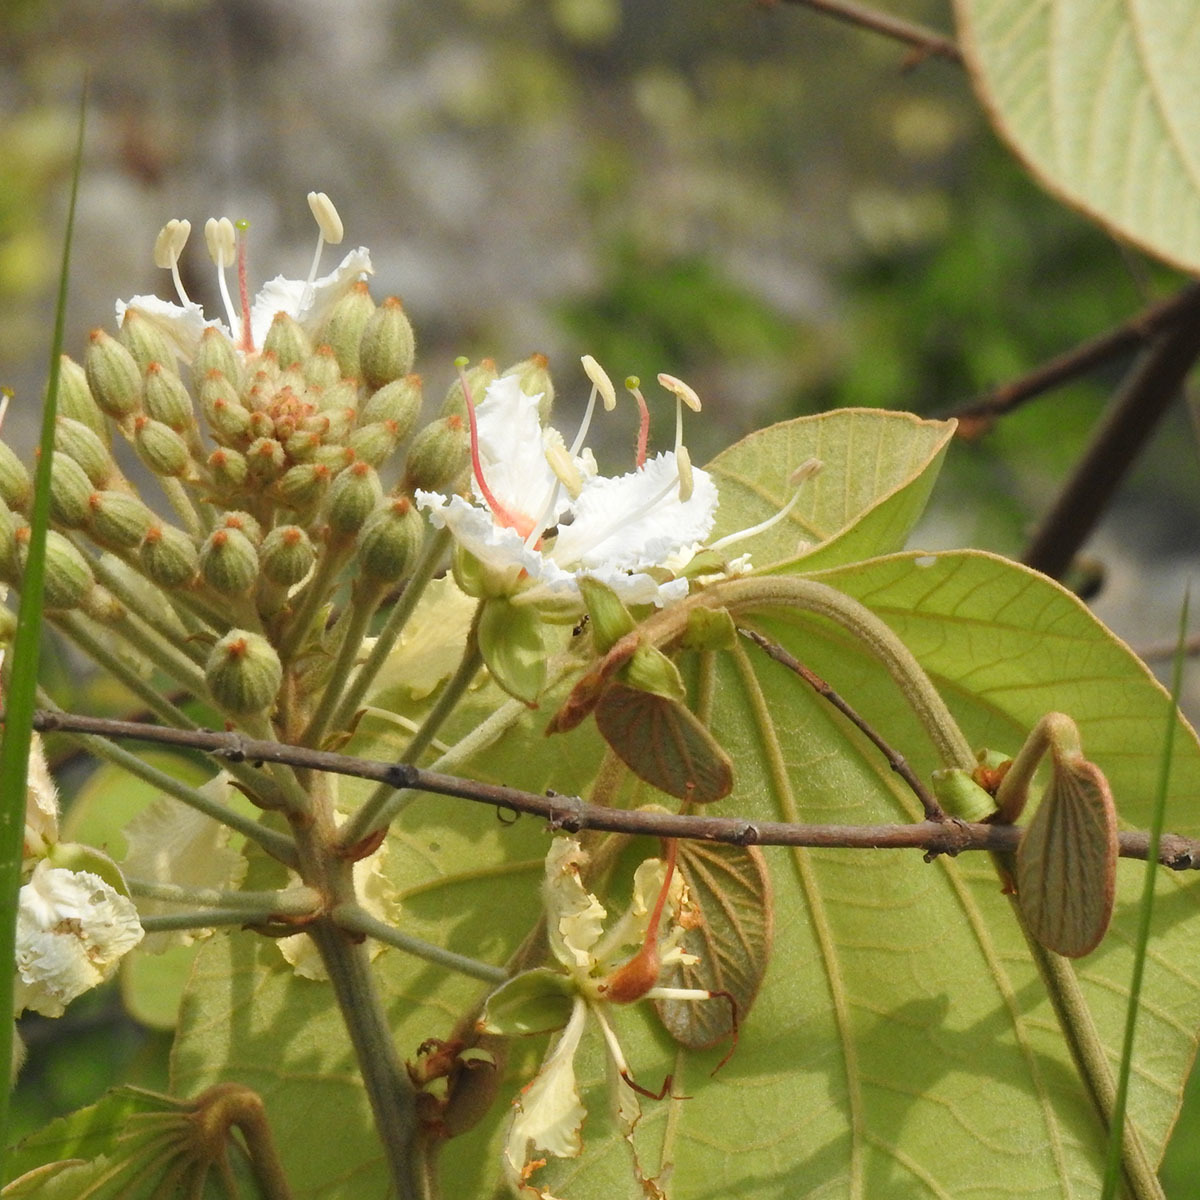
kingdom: Plantae
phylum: Tracheophyta
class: Magnoliopsida
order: Fabales
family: Fabaceae
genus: Phanera
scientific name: Phanera vahlii
